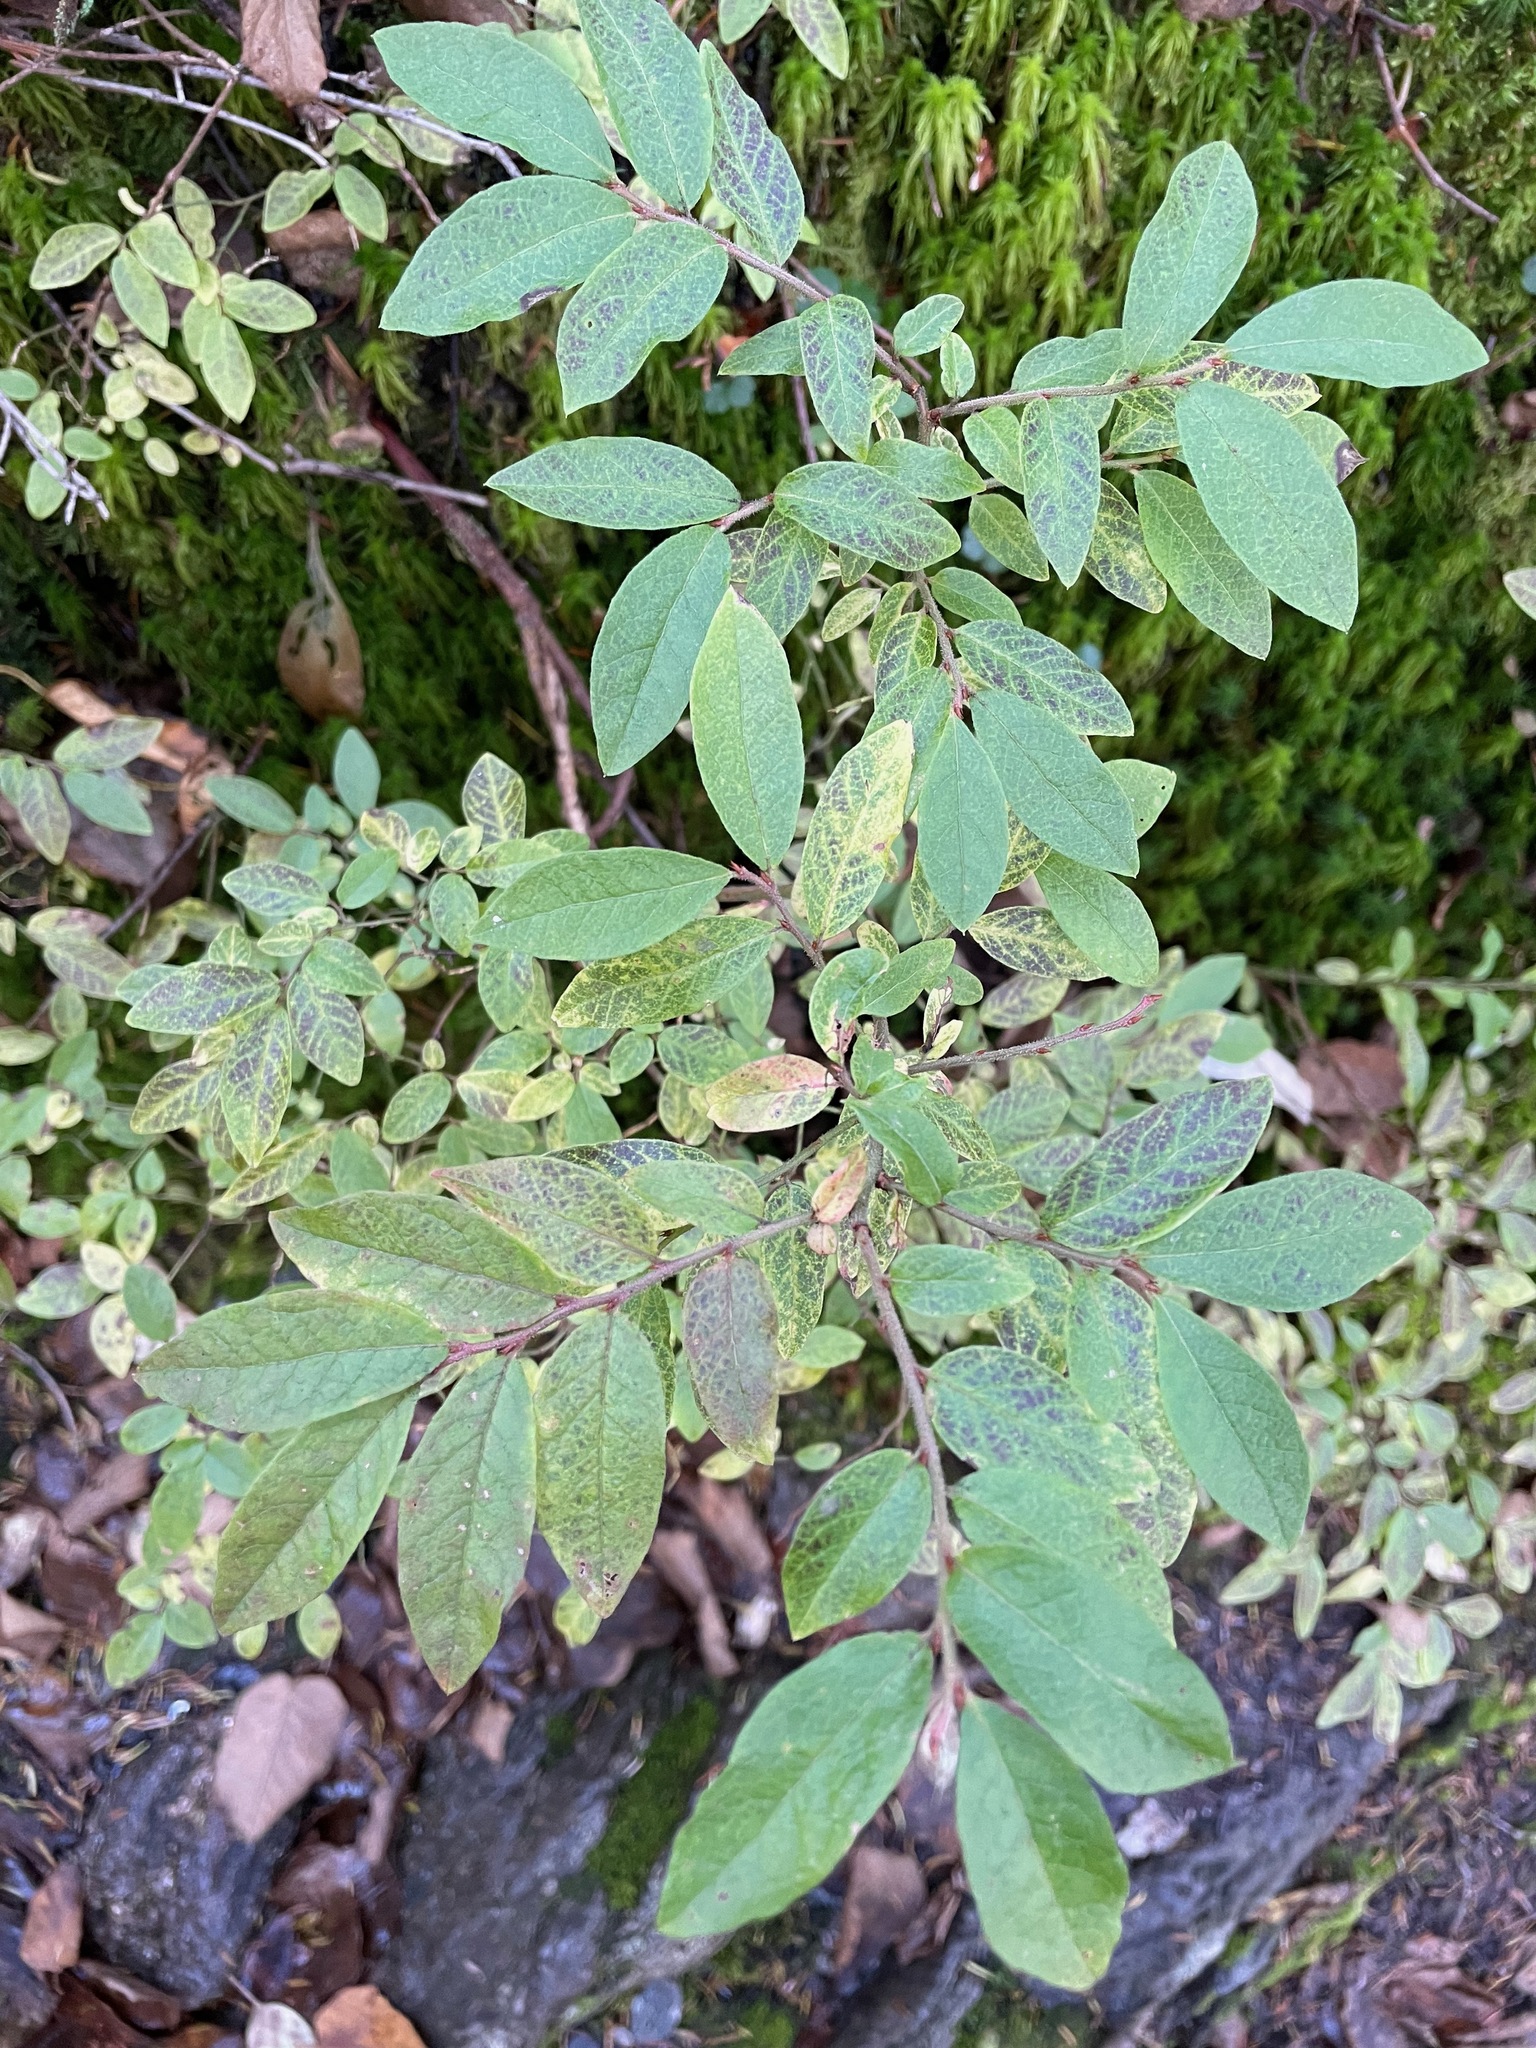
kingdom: Plantae
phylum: Tracheophyta
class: Magnoliopsida
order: Ericales
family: Ericaceae
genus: Vaccinium
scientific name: Vaccinium myrtilloides
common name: Canada blueberry
